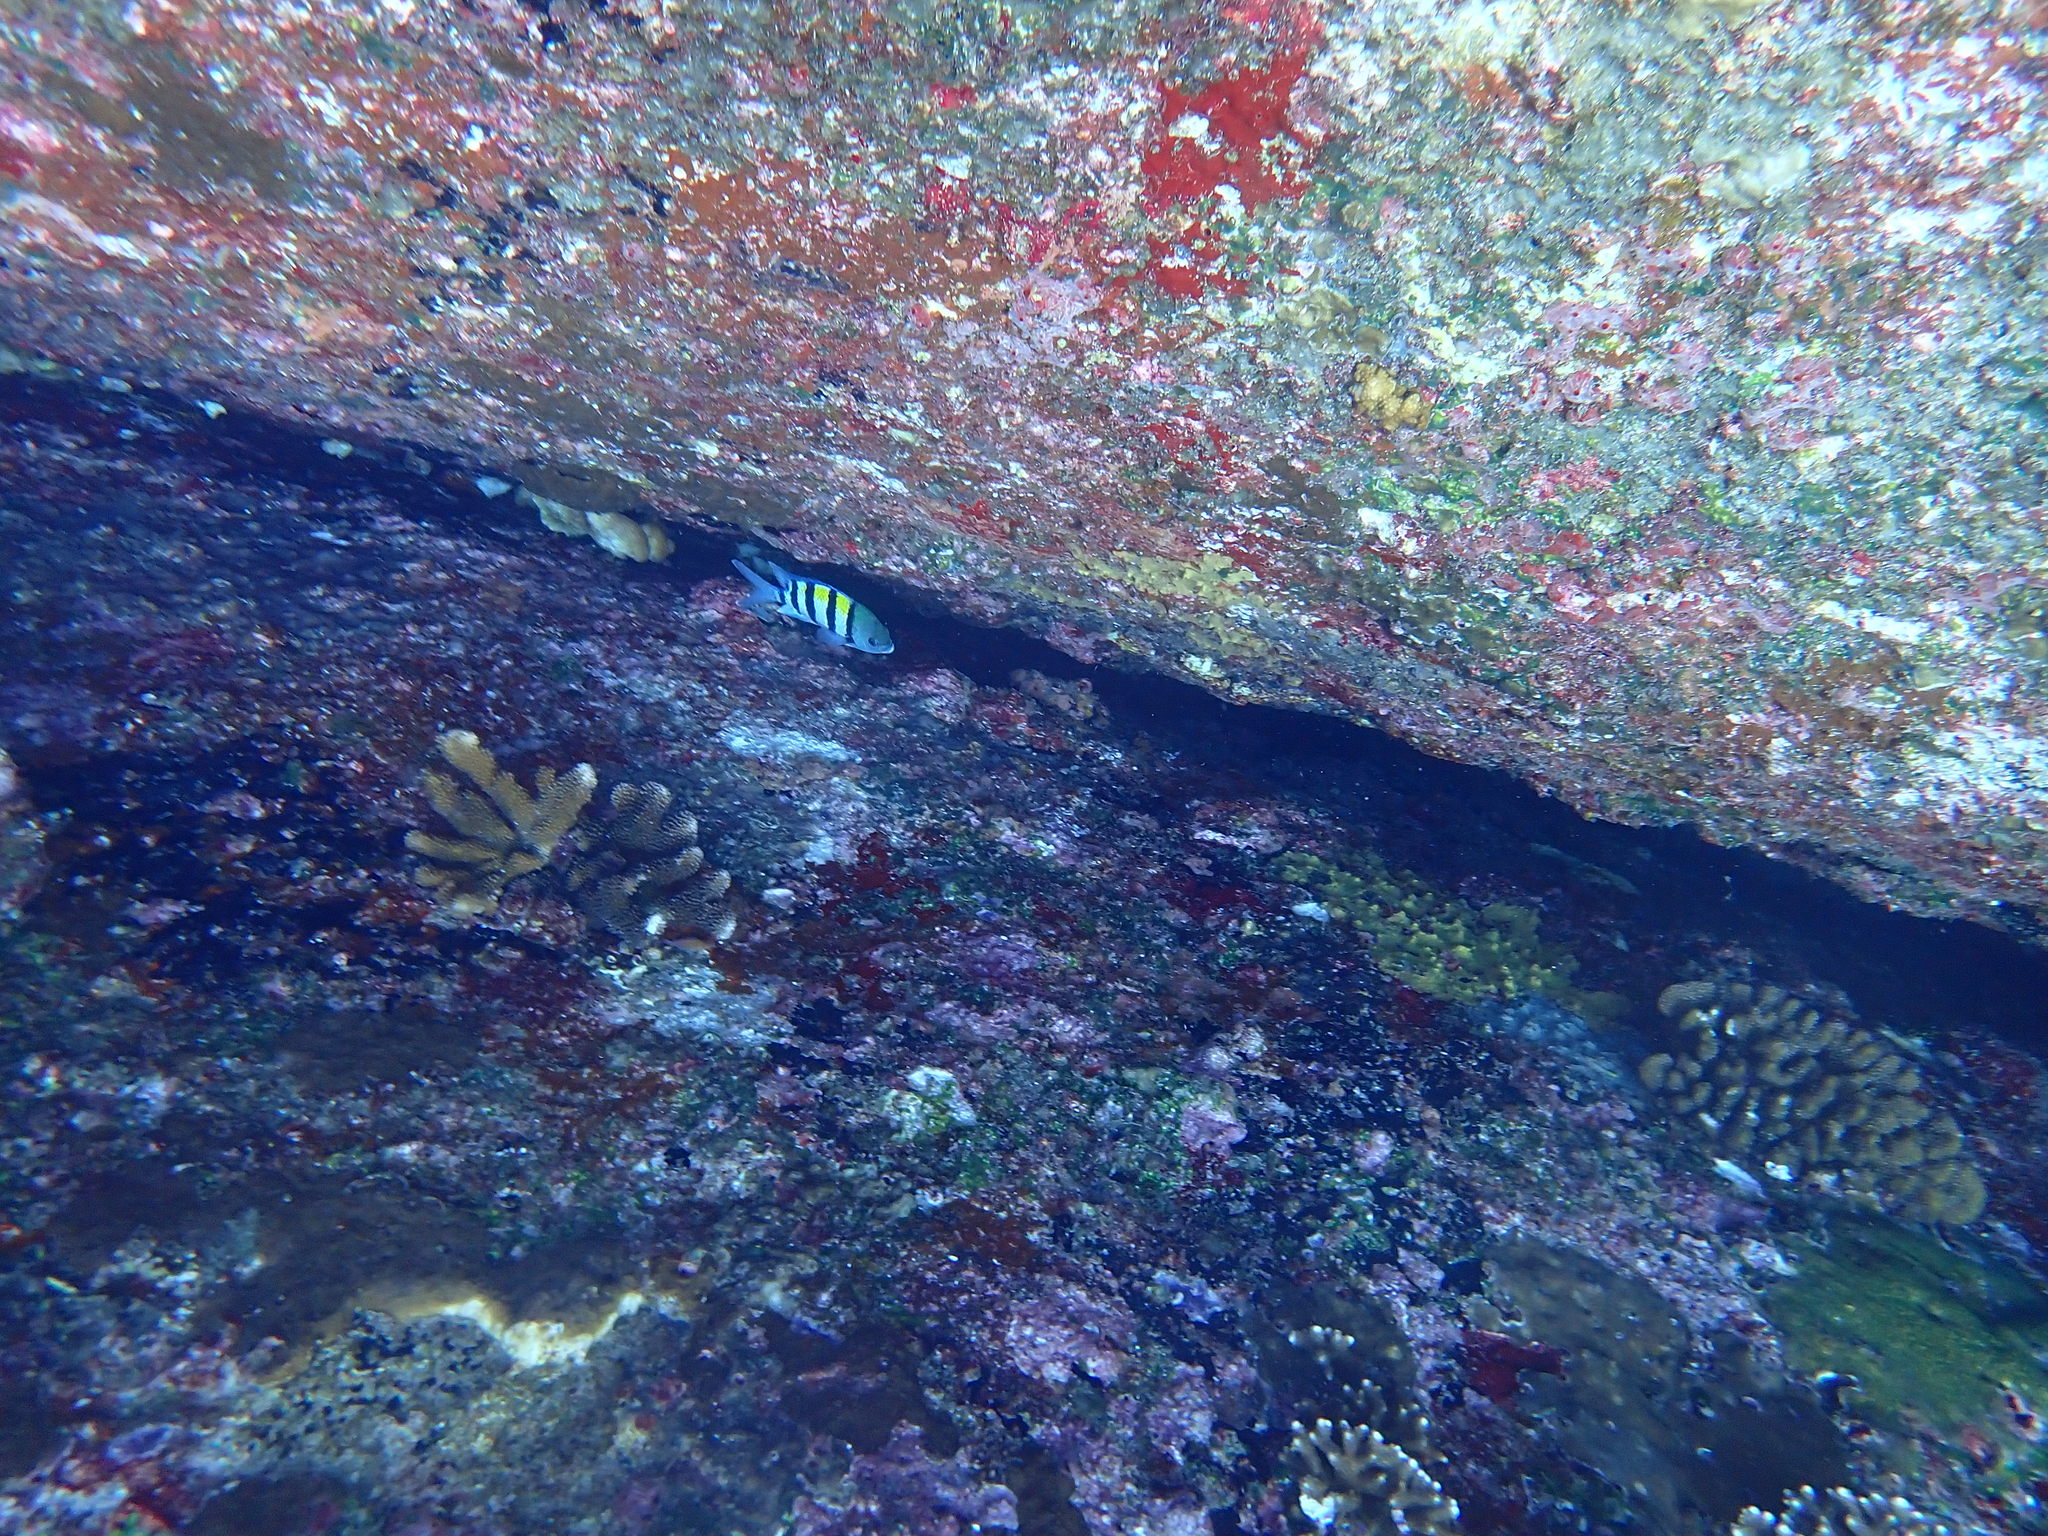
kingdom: Animalia
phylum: Chordata
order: Perciformes
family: Pomacentridae
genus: Abudefduf
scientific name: Abudefduf vaigiensis
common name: Indo-pacific sergeant
